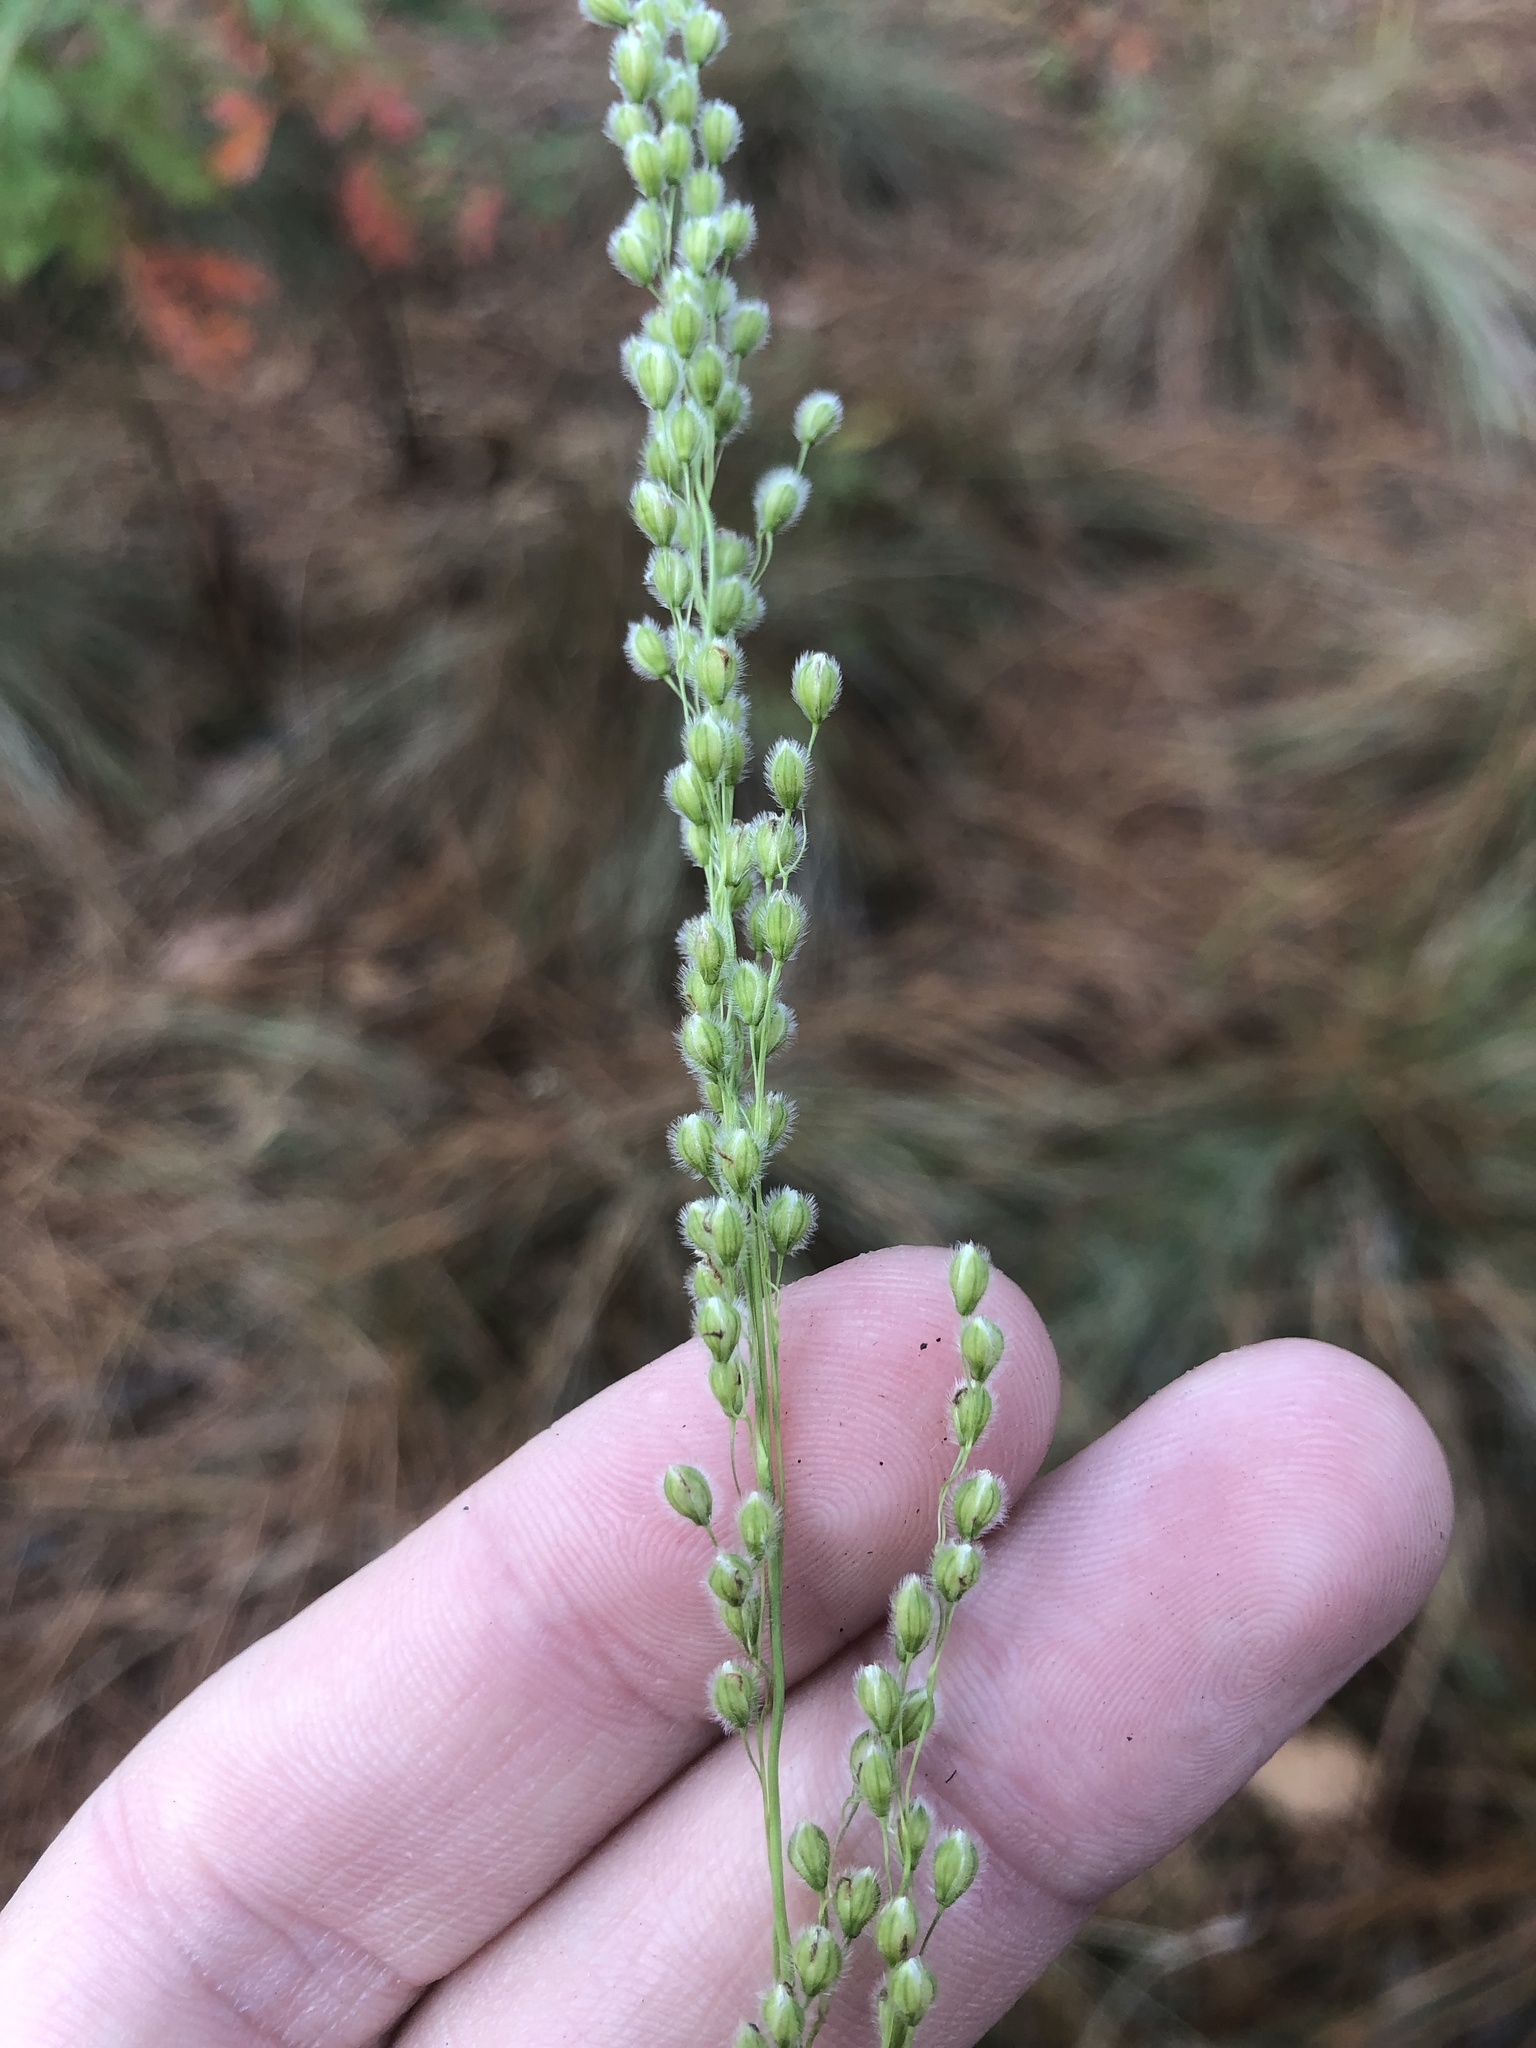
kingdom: Plantae
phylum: Tracheophyta
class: Liliopsida
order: Poales
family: Poaceae
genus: Anthenantia
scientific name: Anthenantia villosa
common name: Green silkyscale
